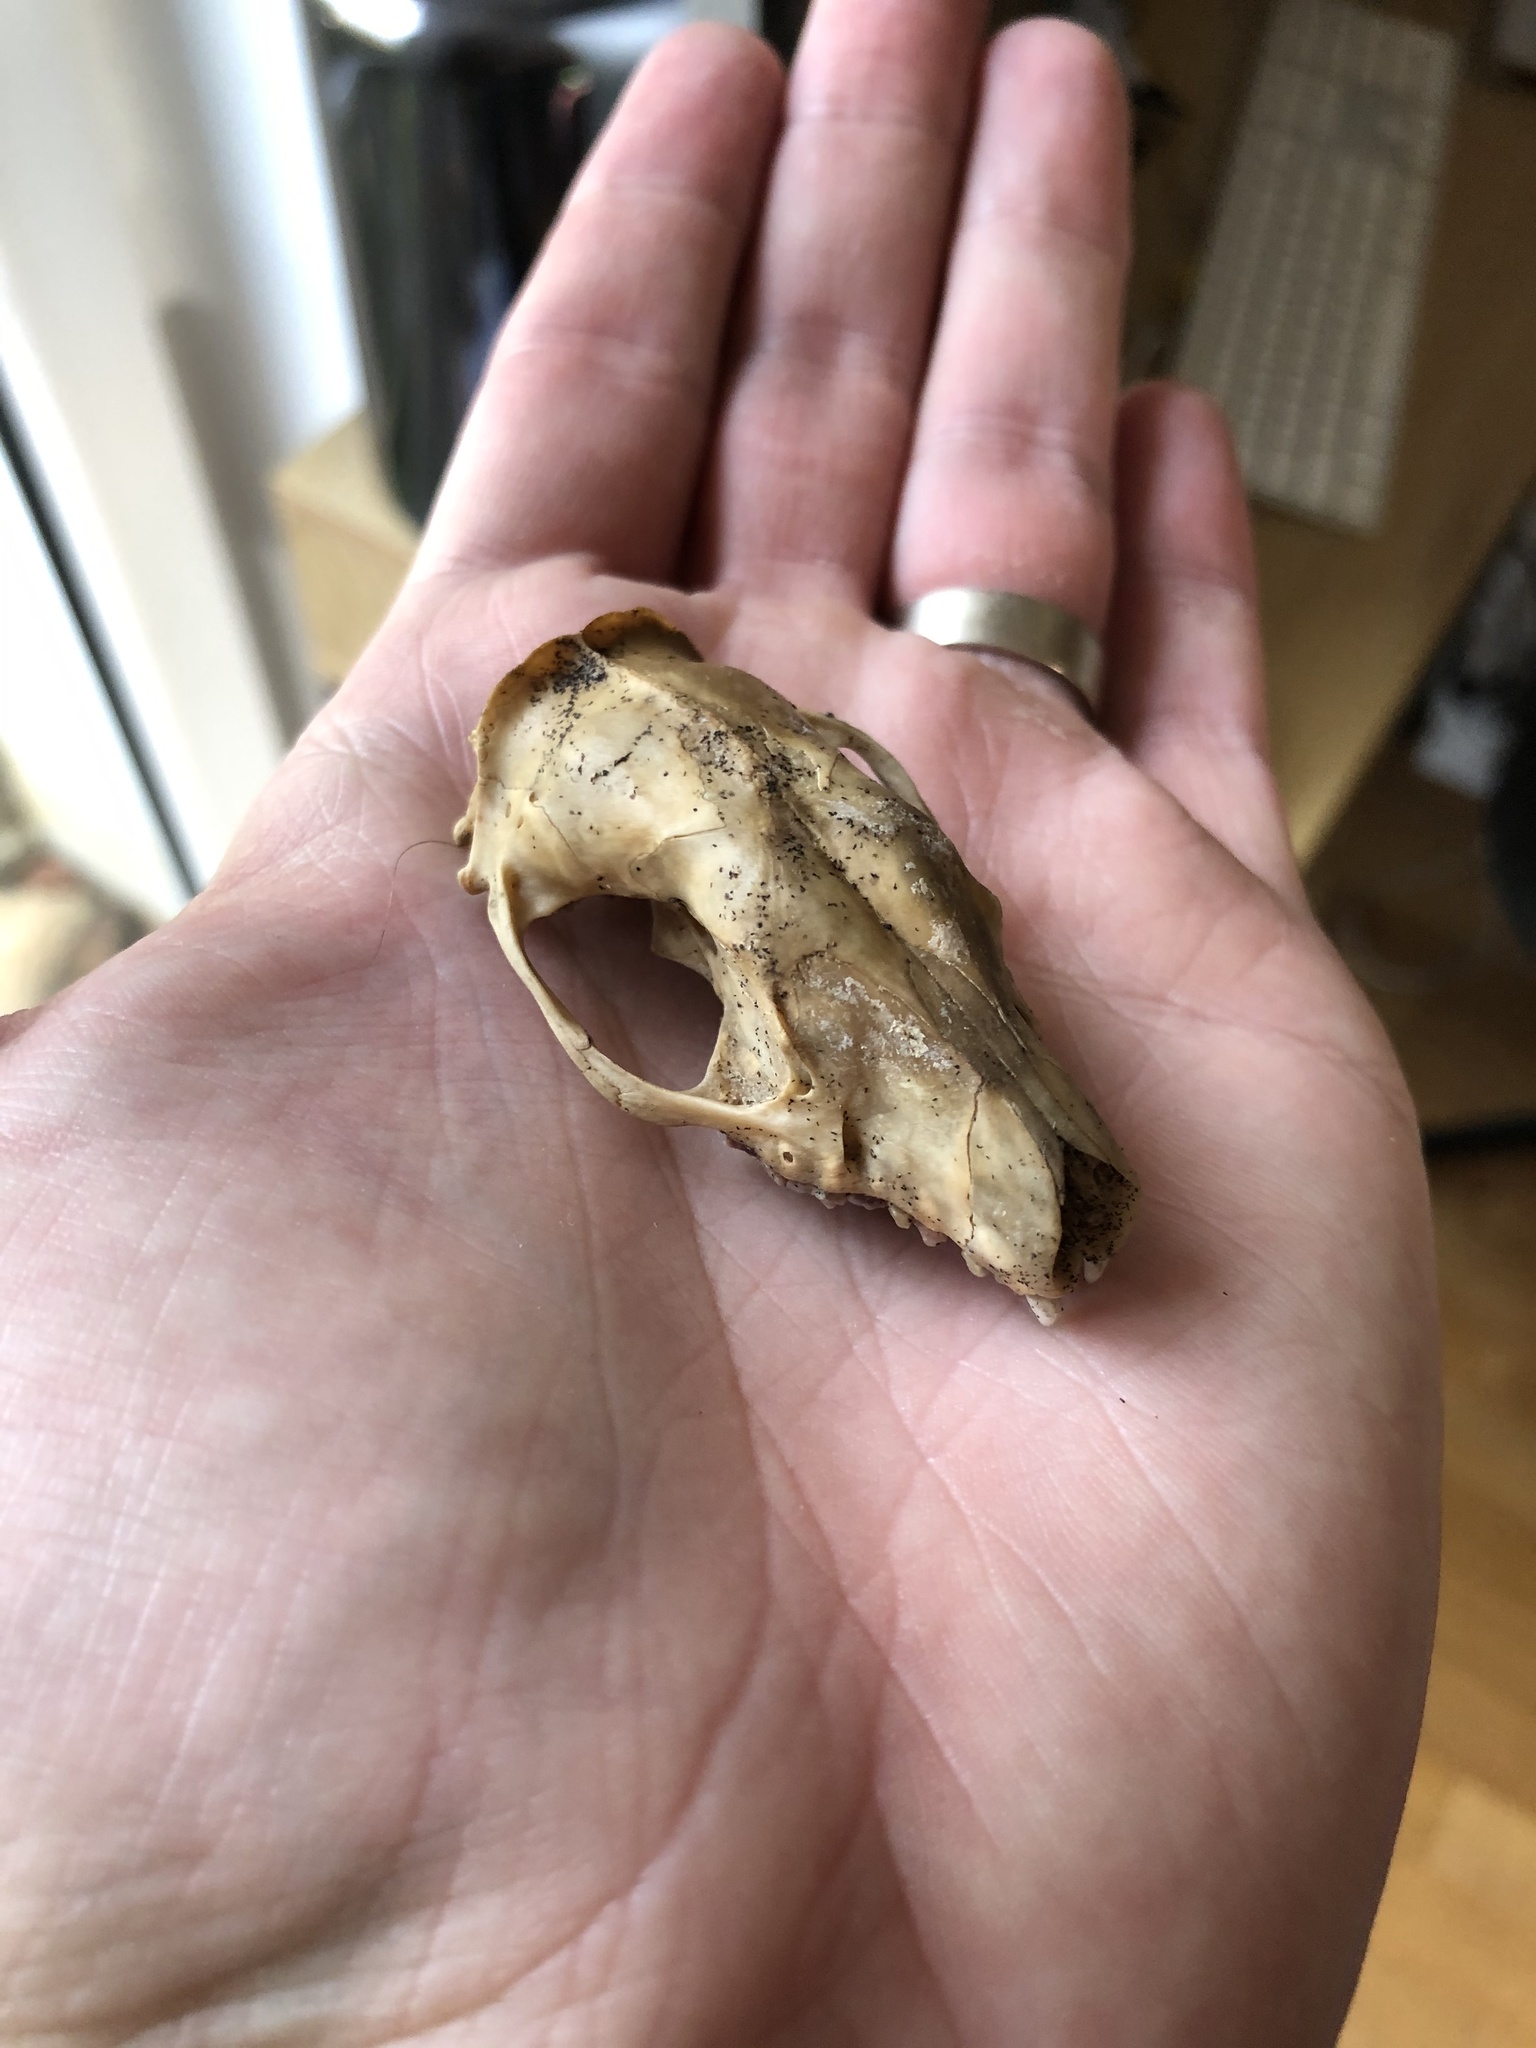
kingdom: Animalia
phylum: Chordata
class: Mammalia
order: Erinaceomorpha
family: Erinaceidae
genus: Erinaceus
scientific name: Erinaceus roumanicus
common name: Northern white-breasted hedgehog
